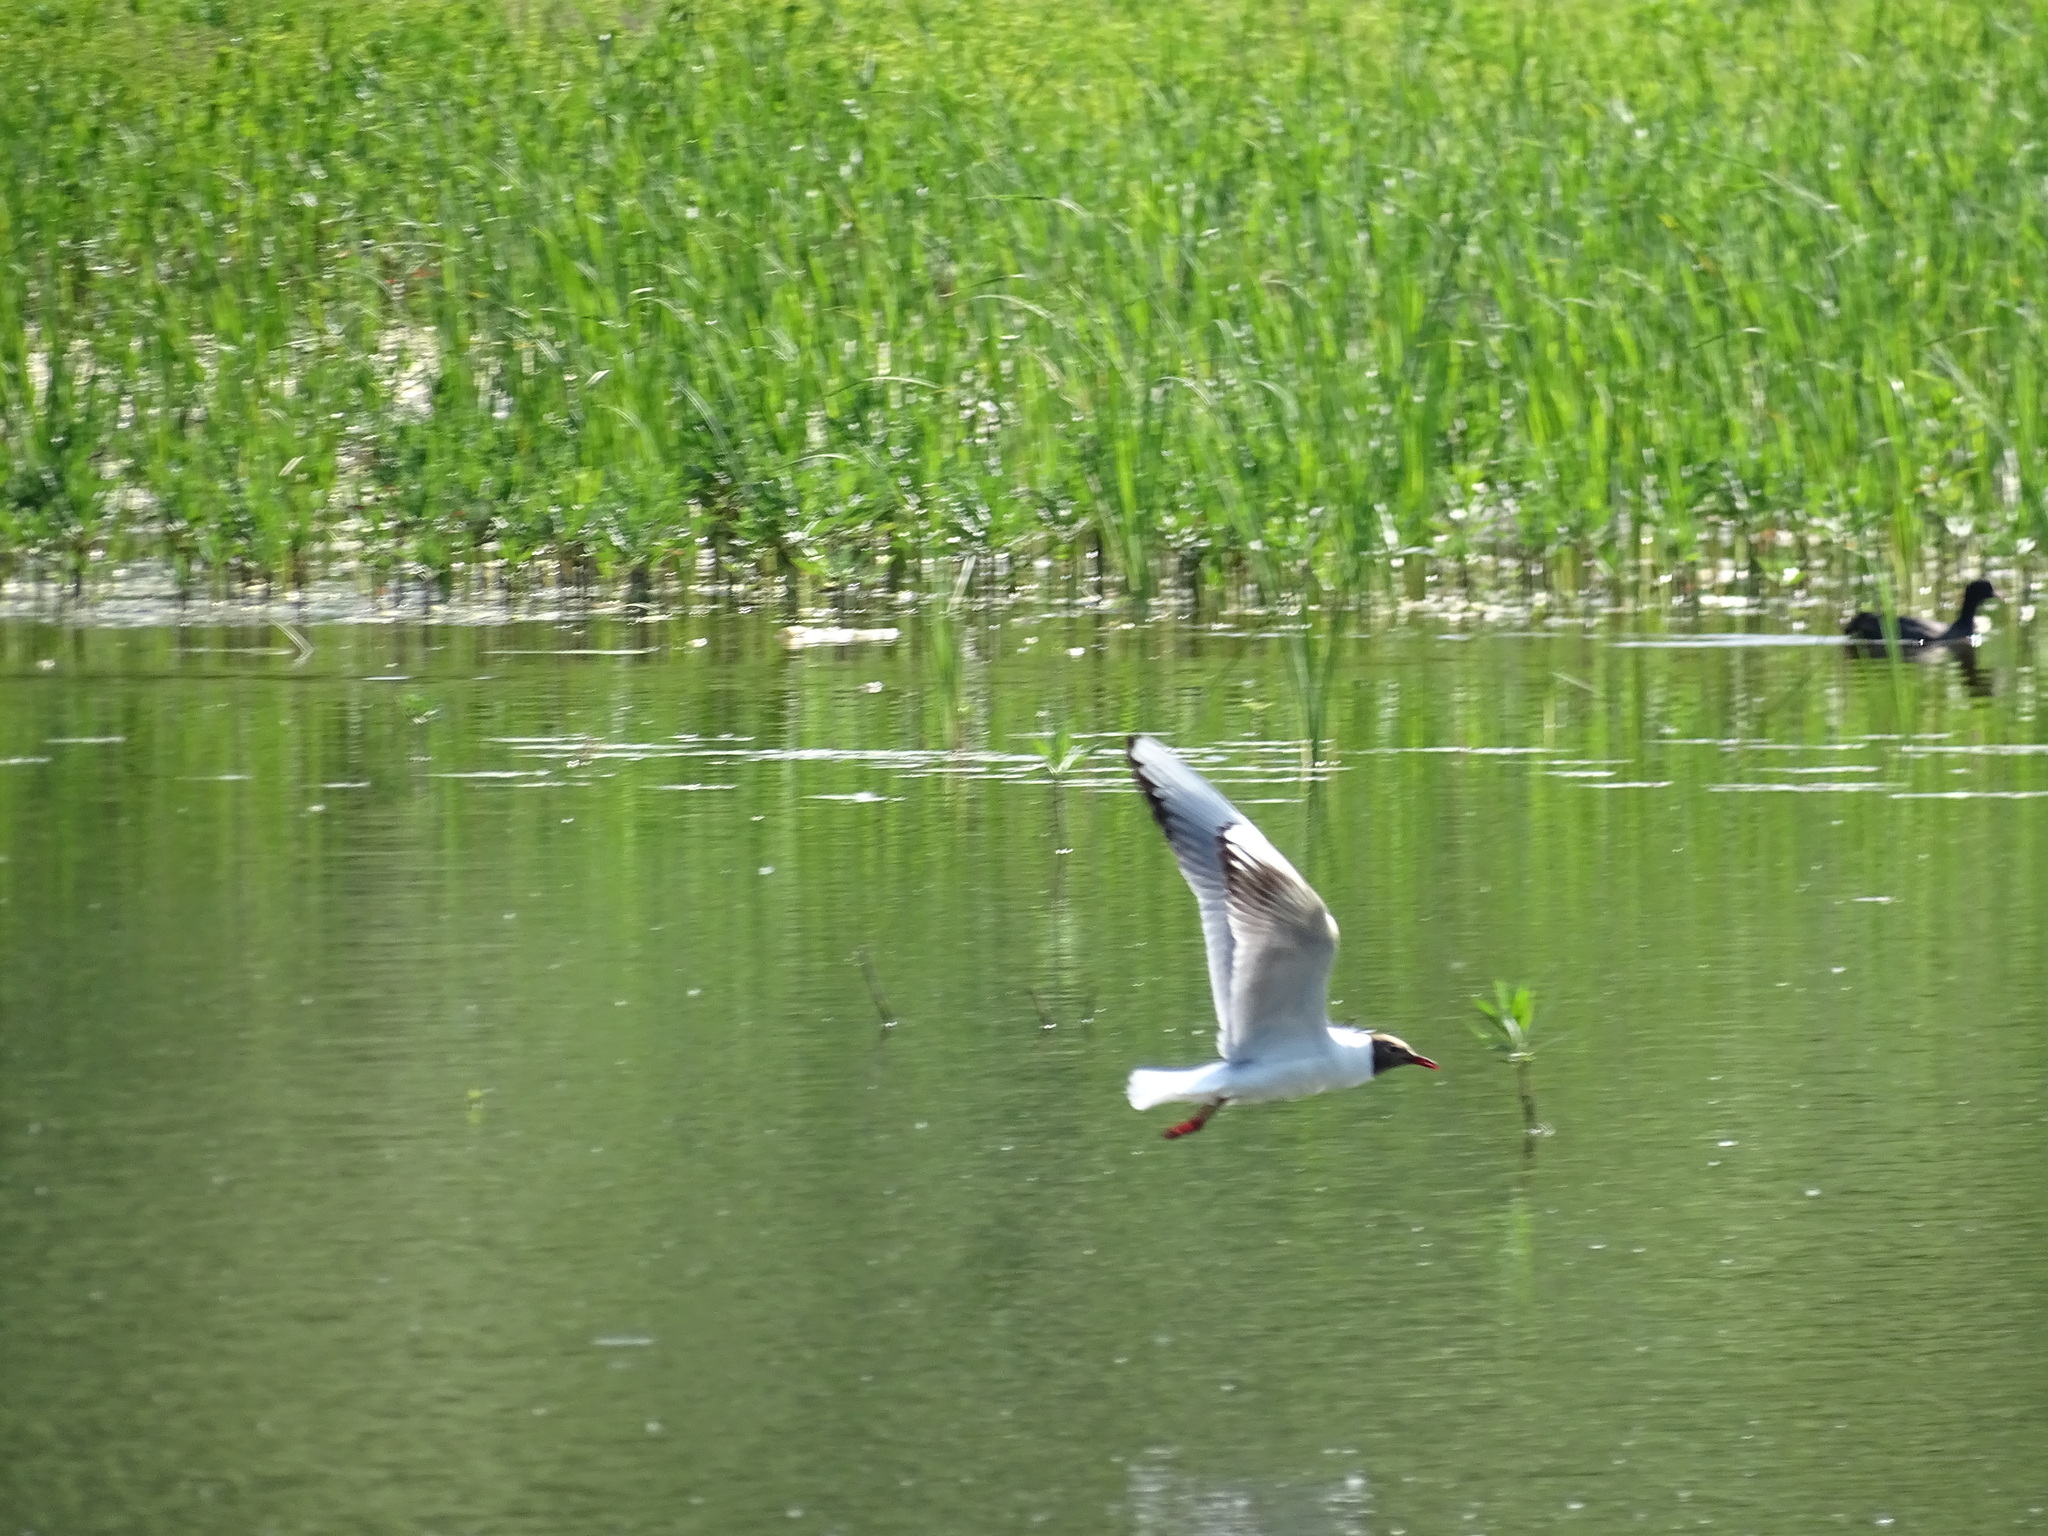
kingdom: Animalia
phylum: Chordata
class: Aves
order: Charadriiformes
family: Laridae
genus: Chroicocephalus
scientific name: Chroicocephalus ridibundus
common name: Black-headed gull
